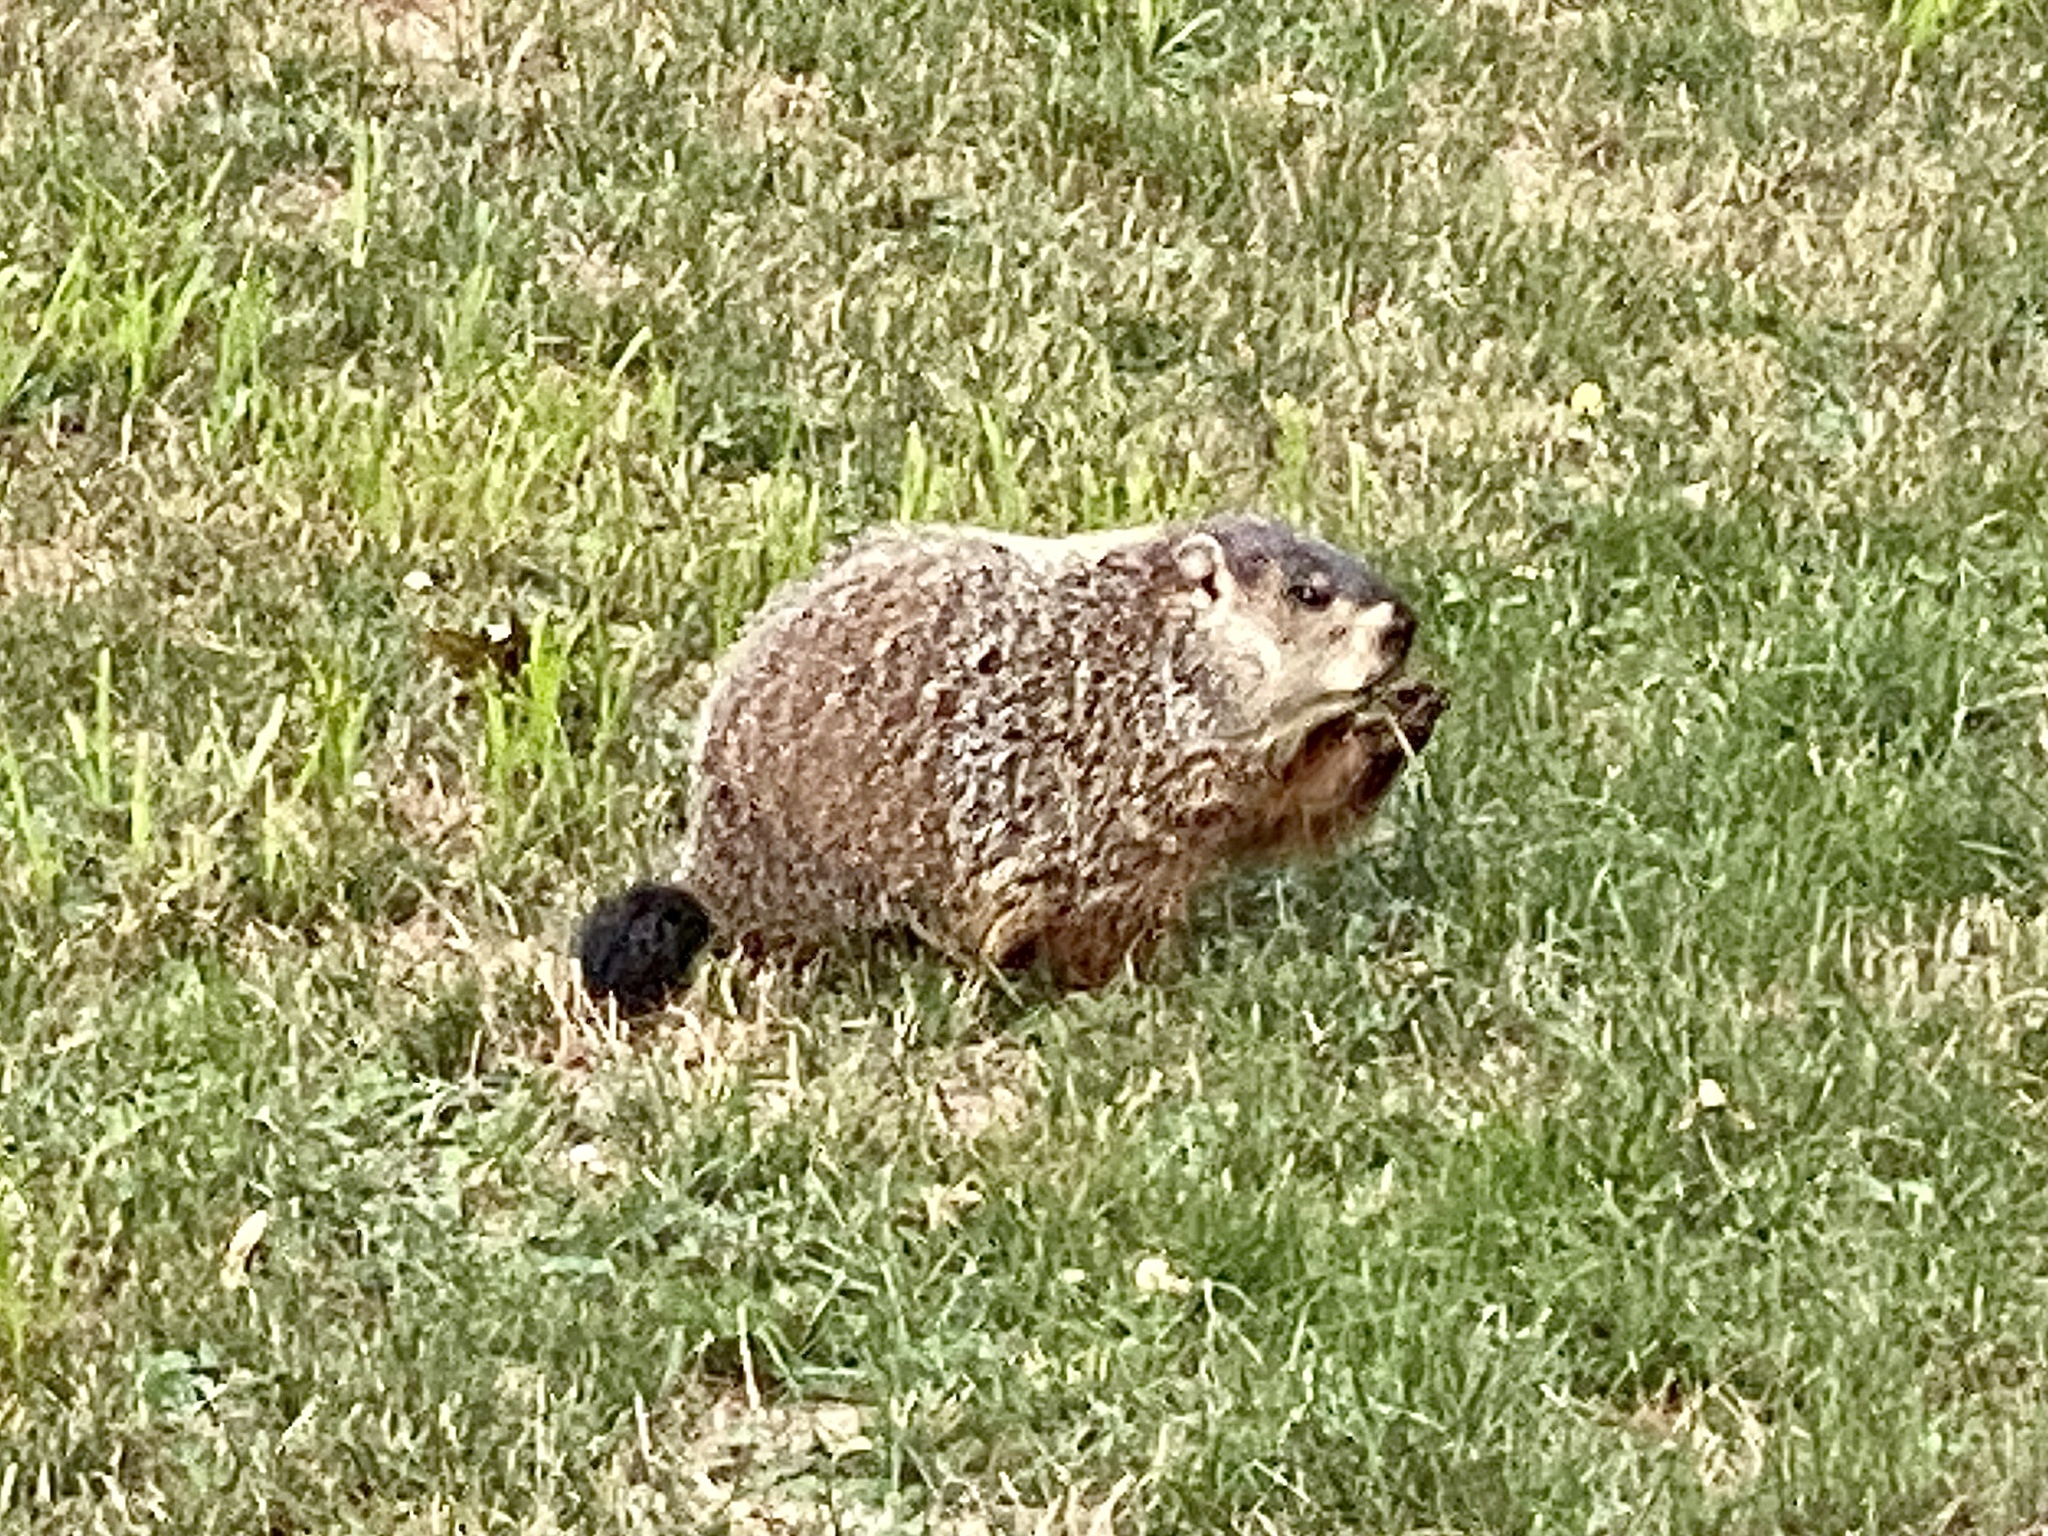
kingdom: Animalia
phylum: Chordata
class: Mammalia
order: Rodentia
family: Sciuridae
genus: Marmota
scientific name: Marmota monax
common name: Groundhog
